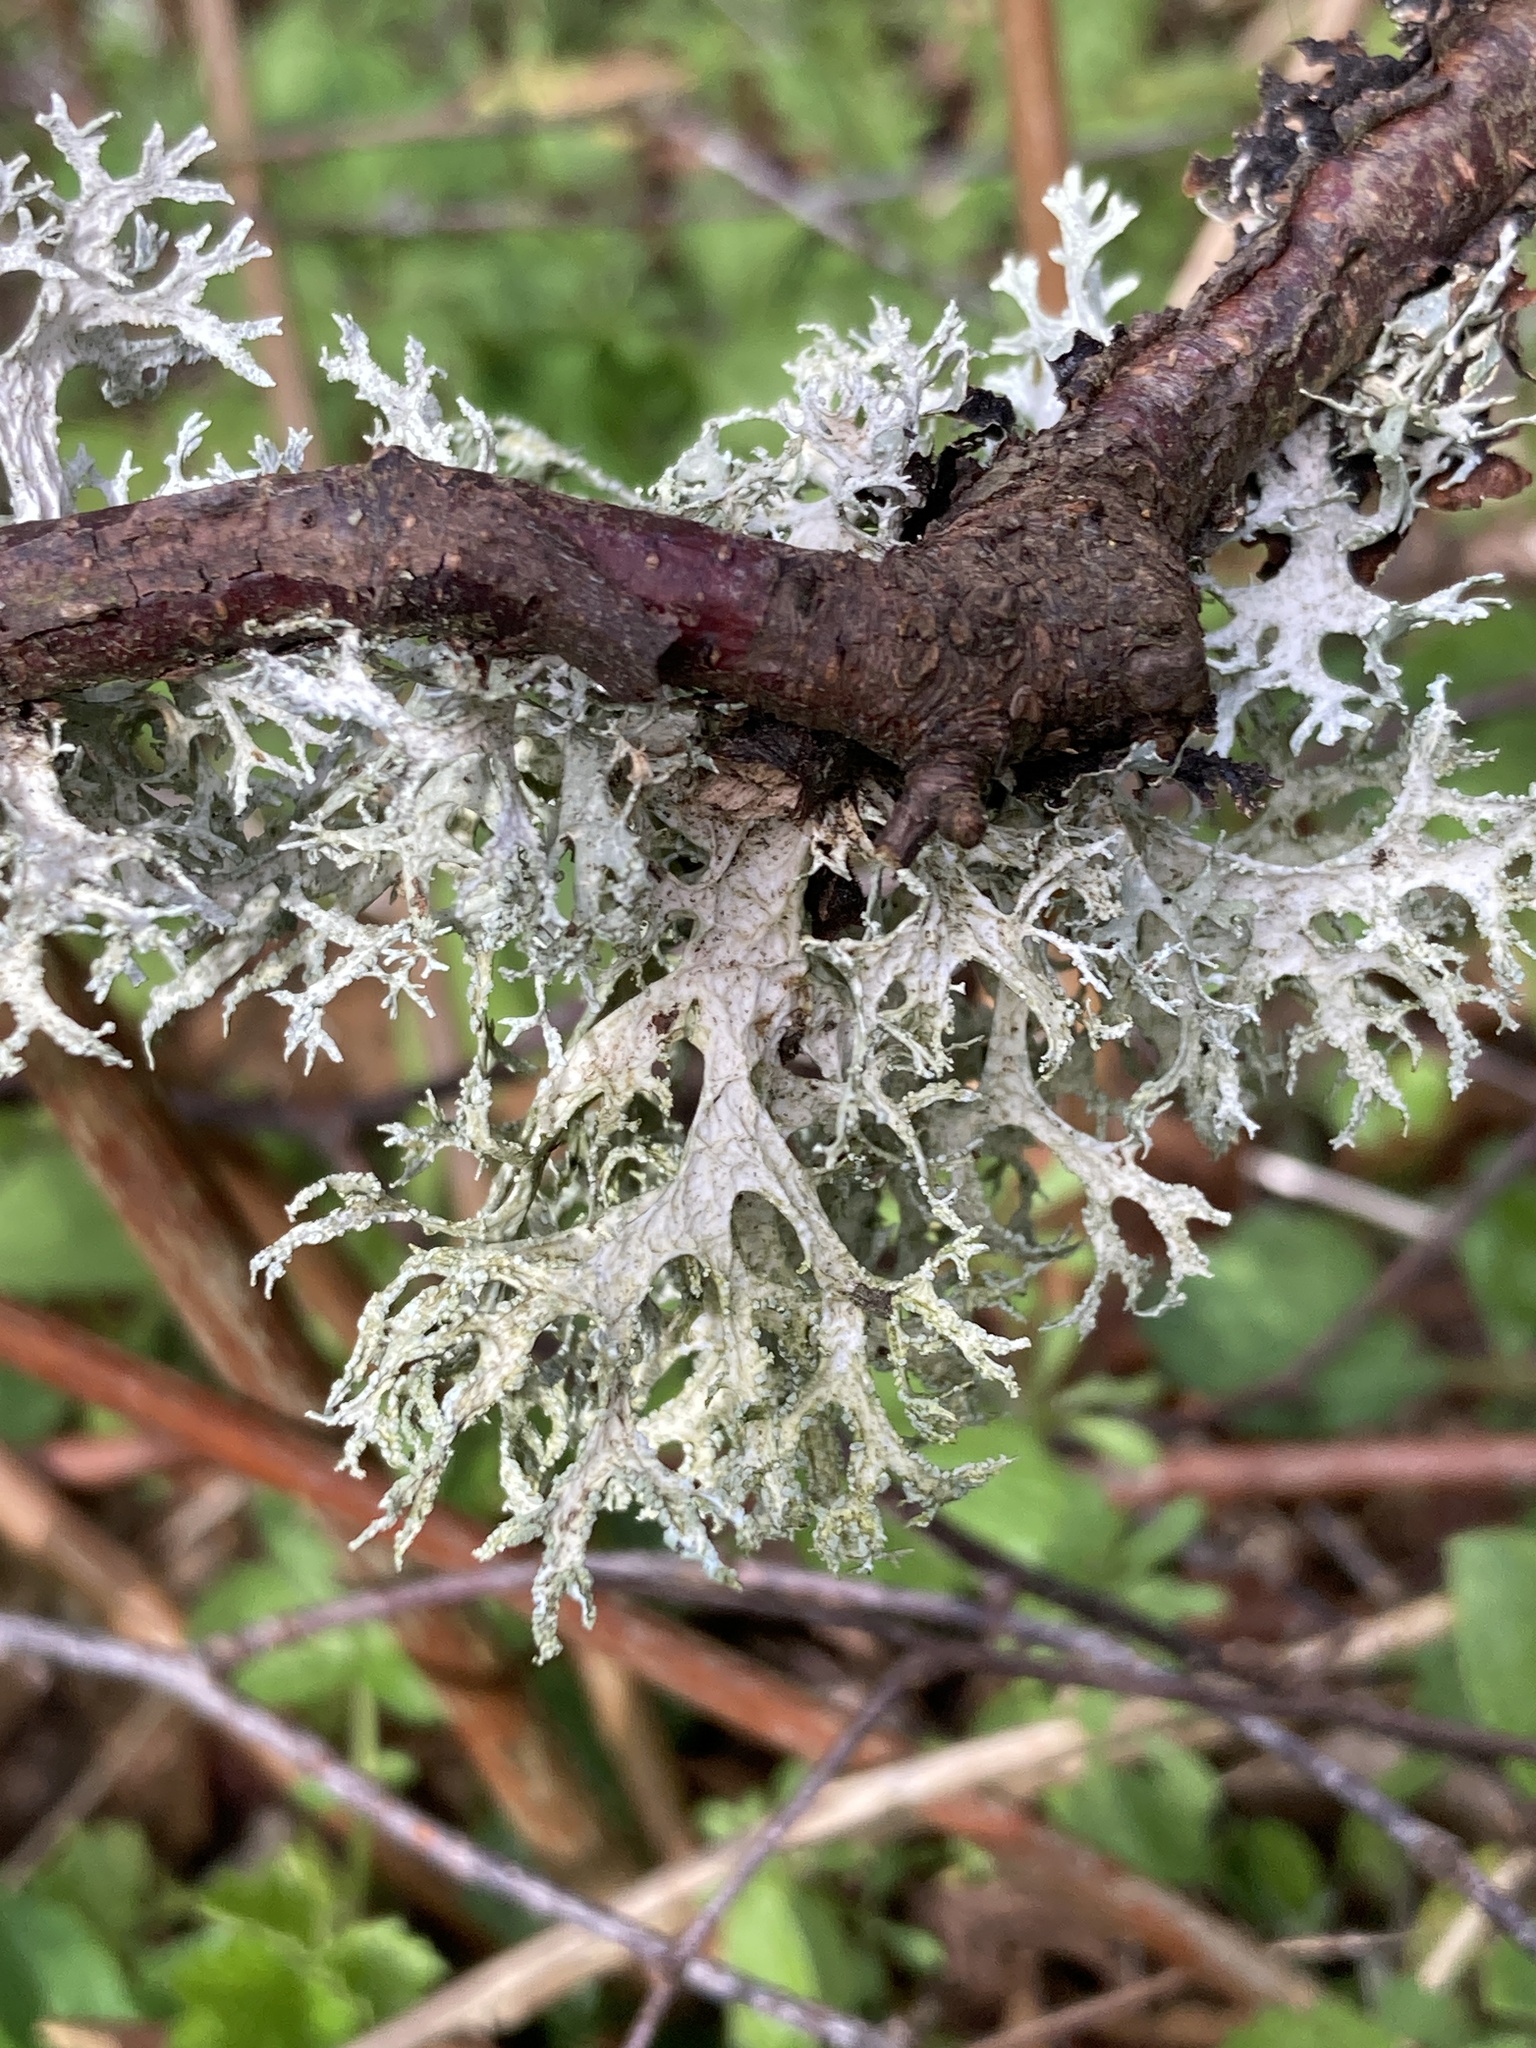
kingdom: Fungi
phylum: Ascomycota
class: Lecanoromycetes
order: Lecanorales
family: Parmeliaceae
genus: Evernia
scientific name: Evernia prunastri
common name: Oak moss
